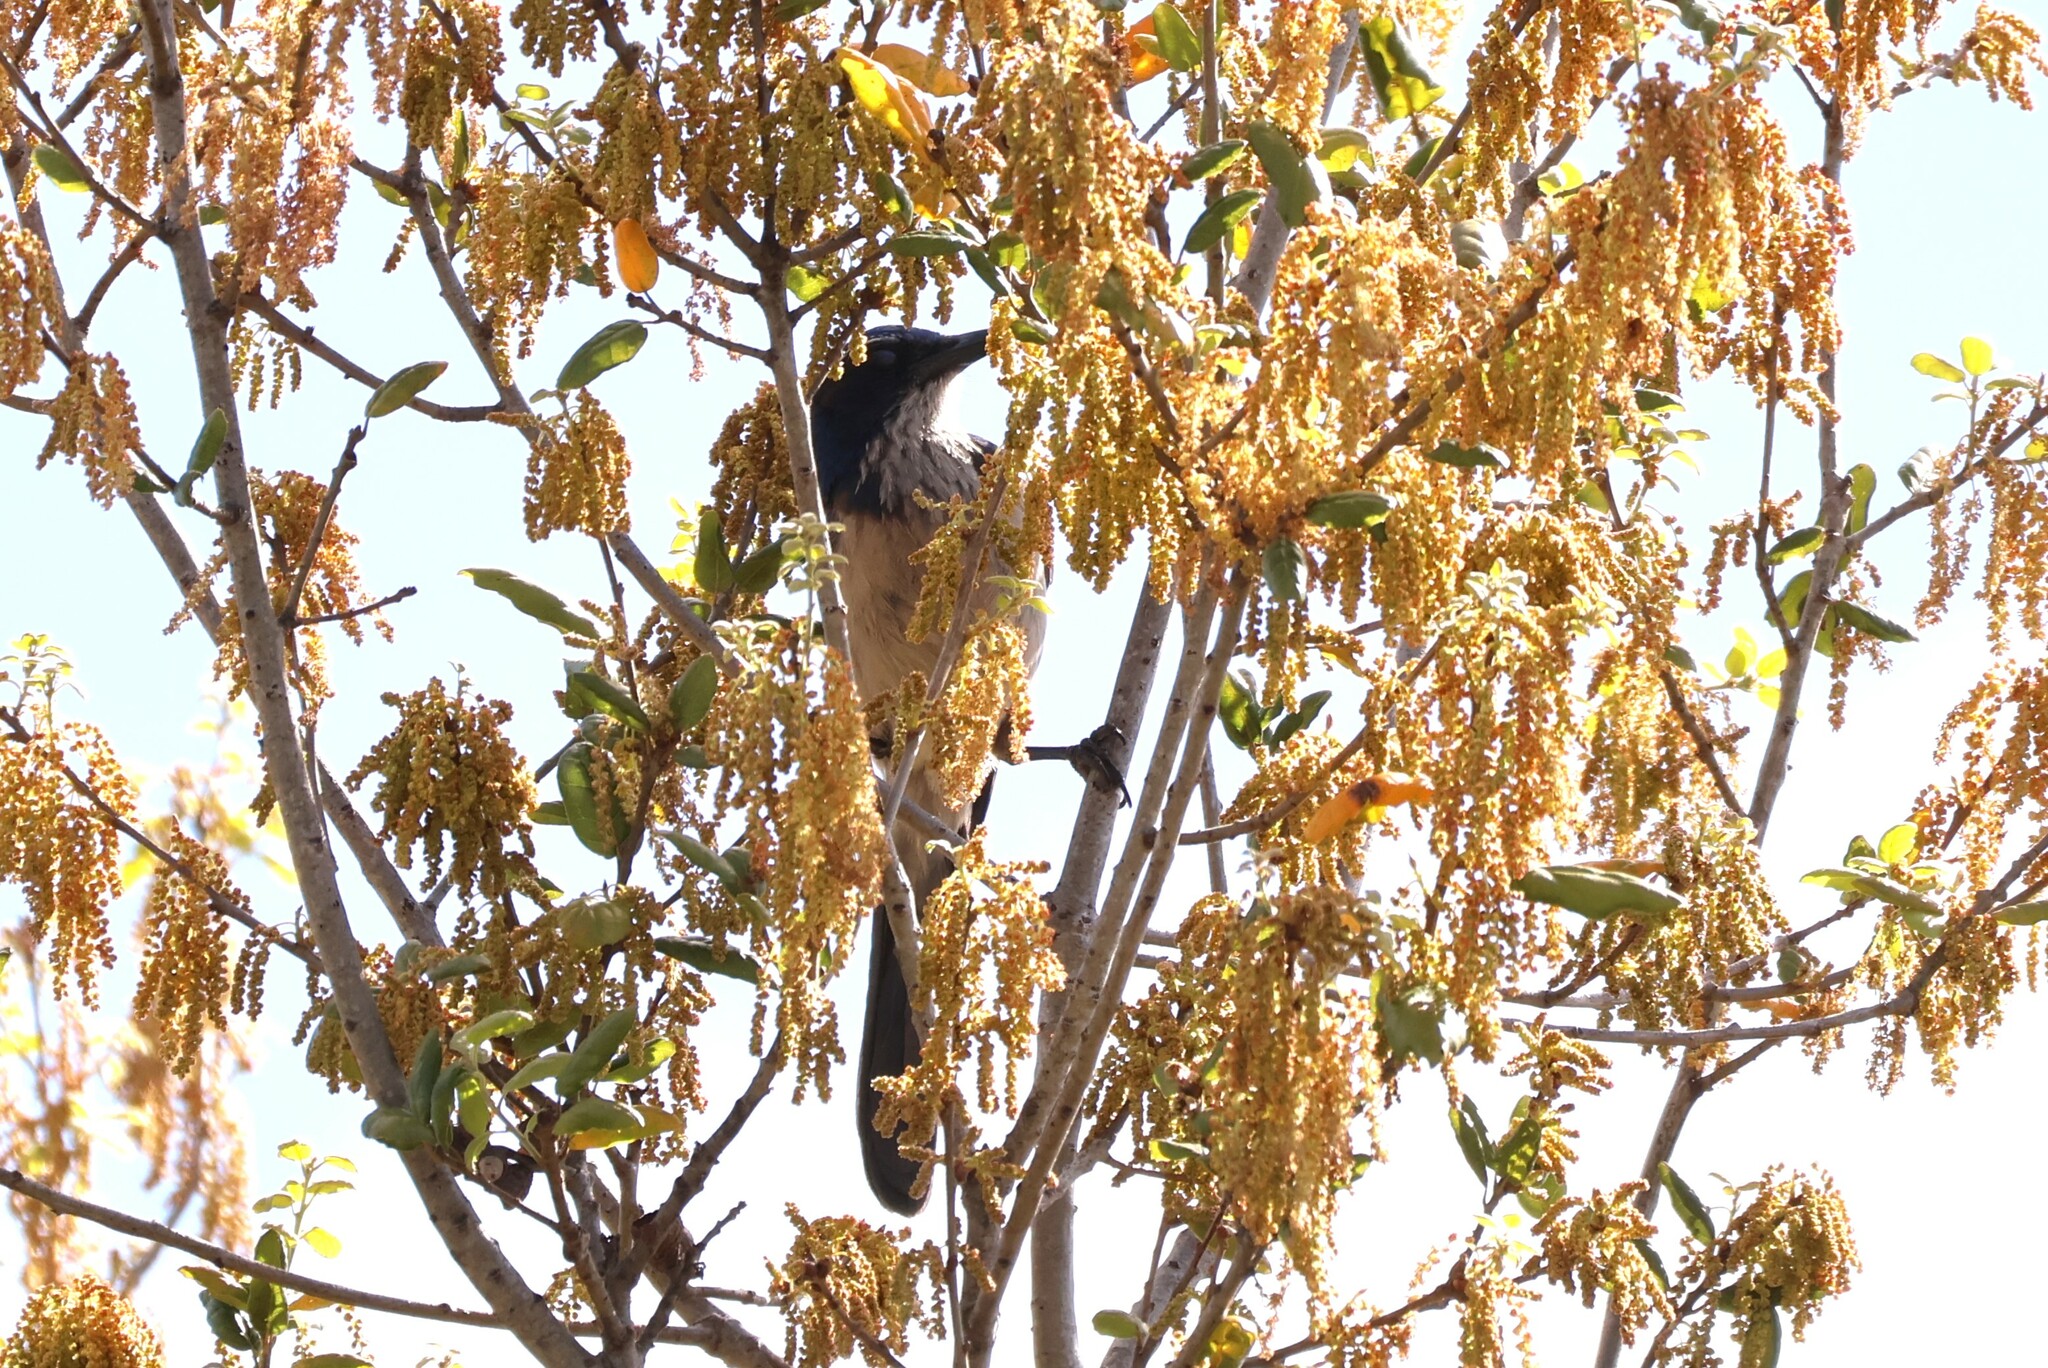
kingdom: Animalia
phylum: Chordata
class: Aves
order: Passeriformes
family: Corvidae
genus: Aphelocoma
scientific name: Aphelocoma californica
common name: California scrub-jay
